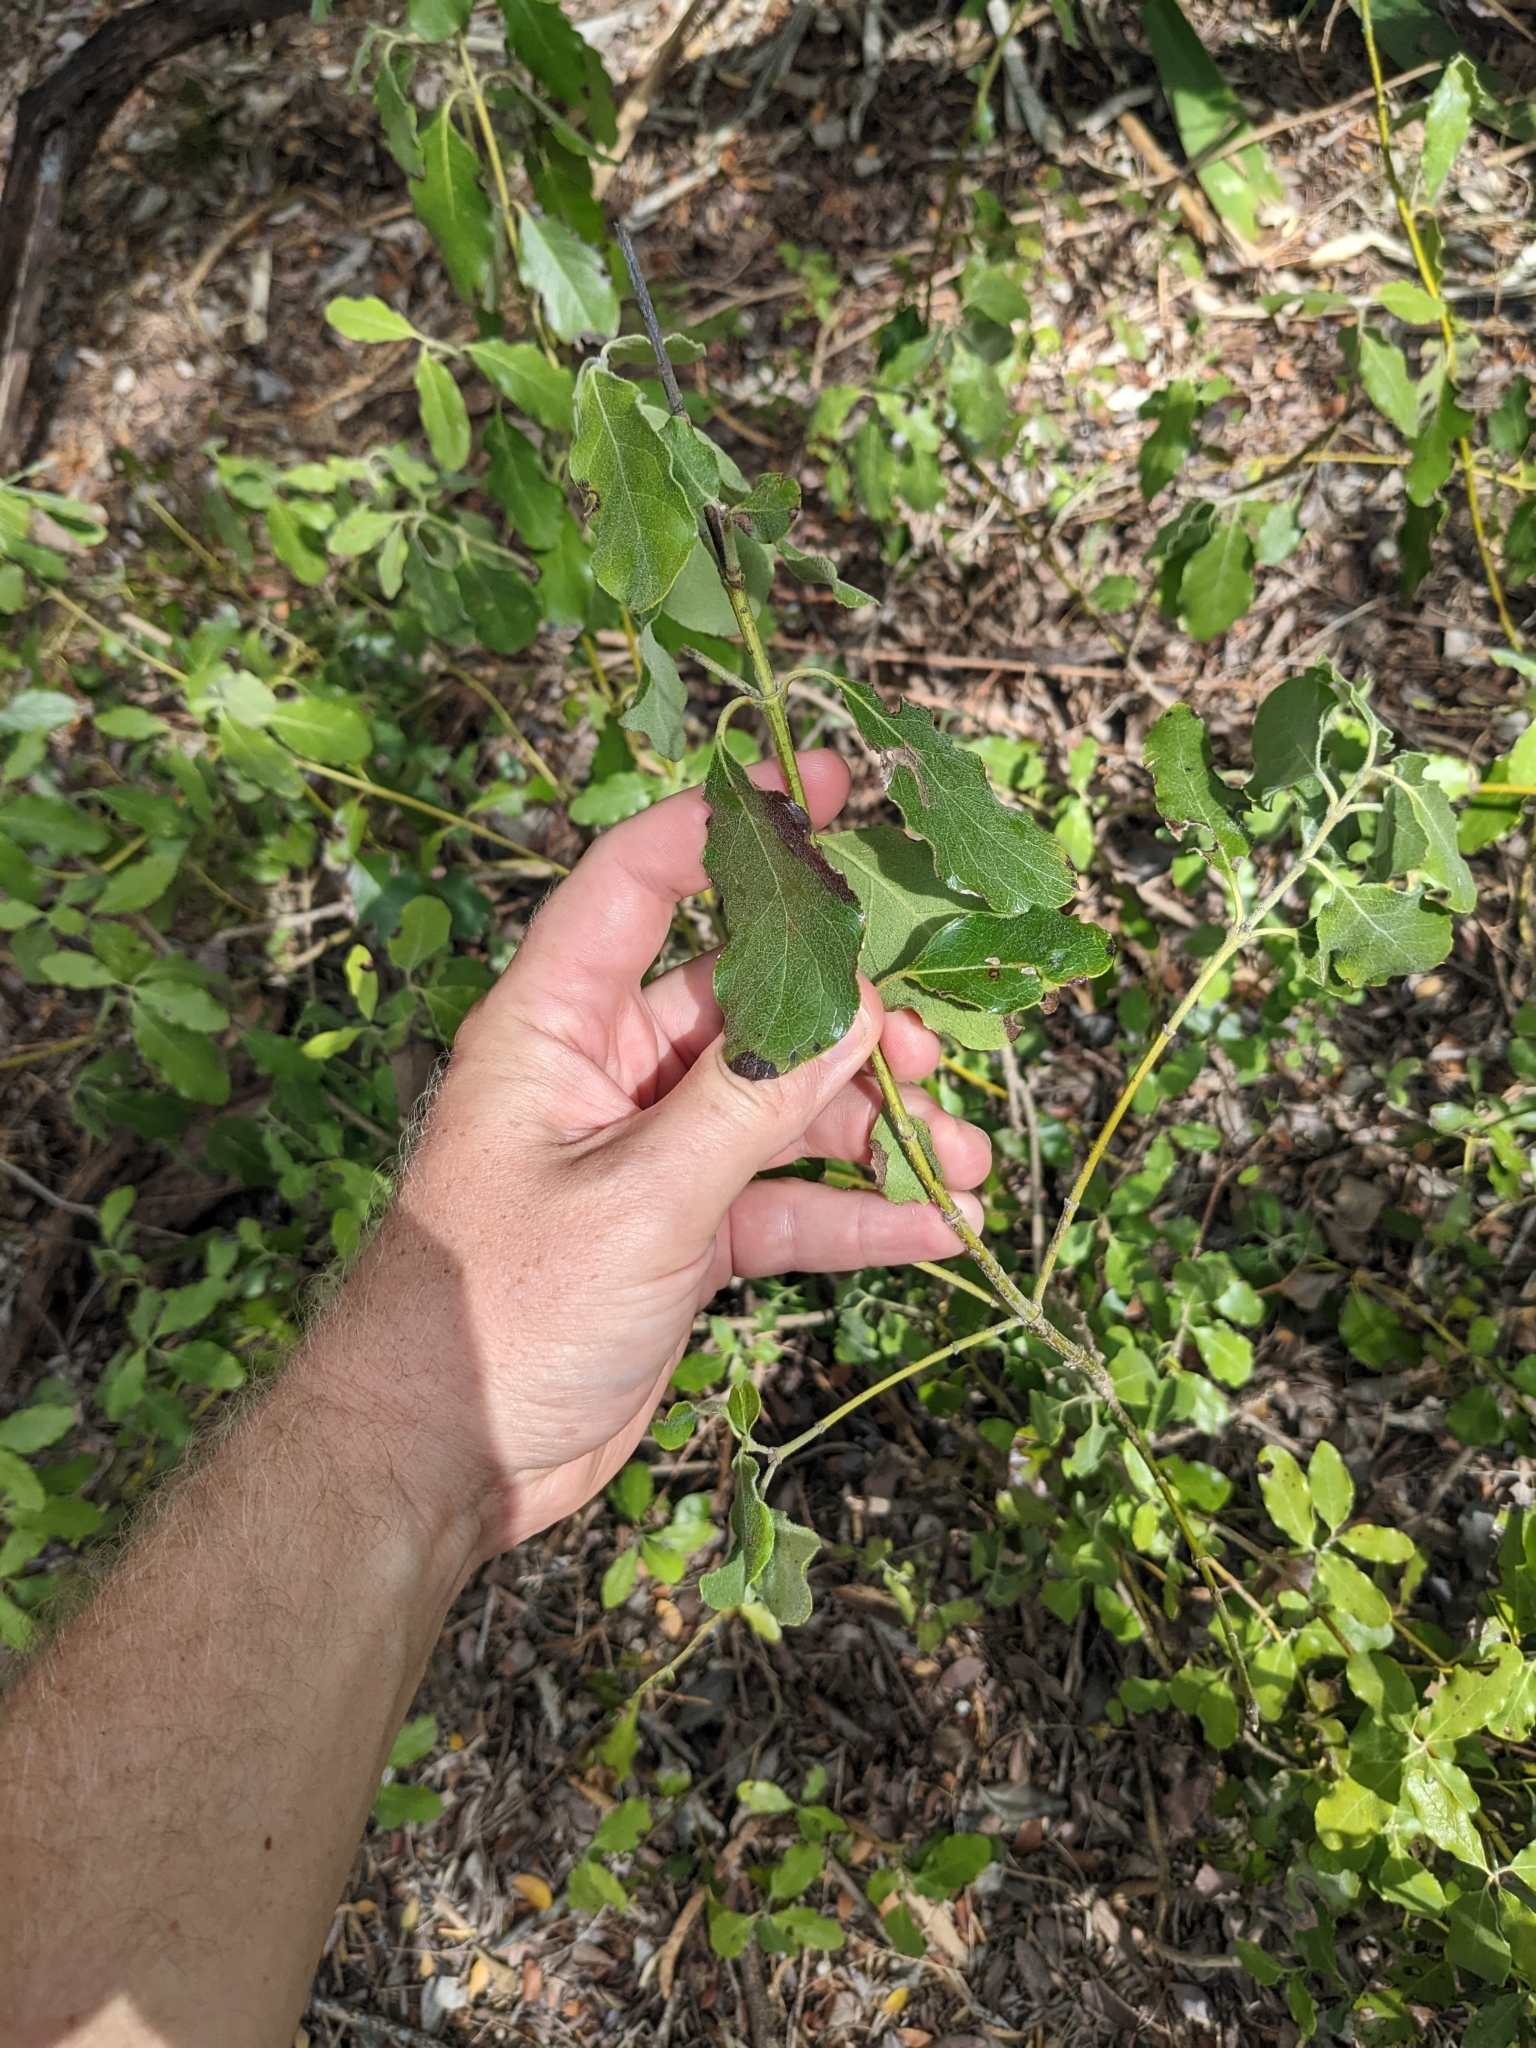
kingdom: Plantae
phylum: Tracheophyta
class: Magnoliopsida
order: Garryales
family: Garryaceae
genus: Garrya
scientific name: Garrya lindheimeri
